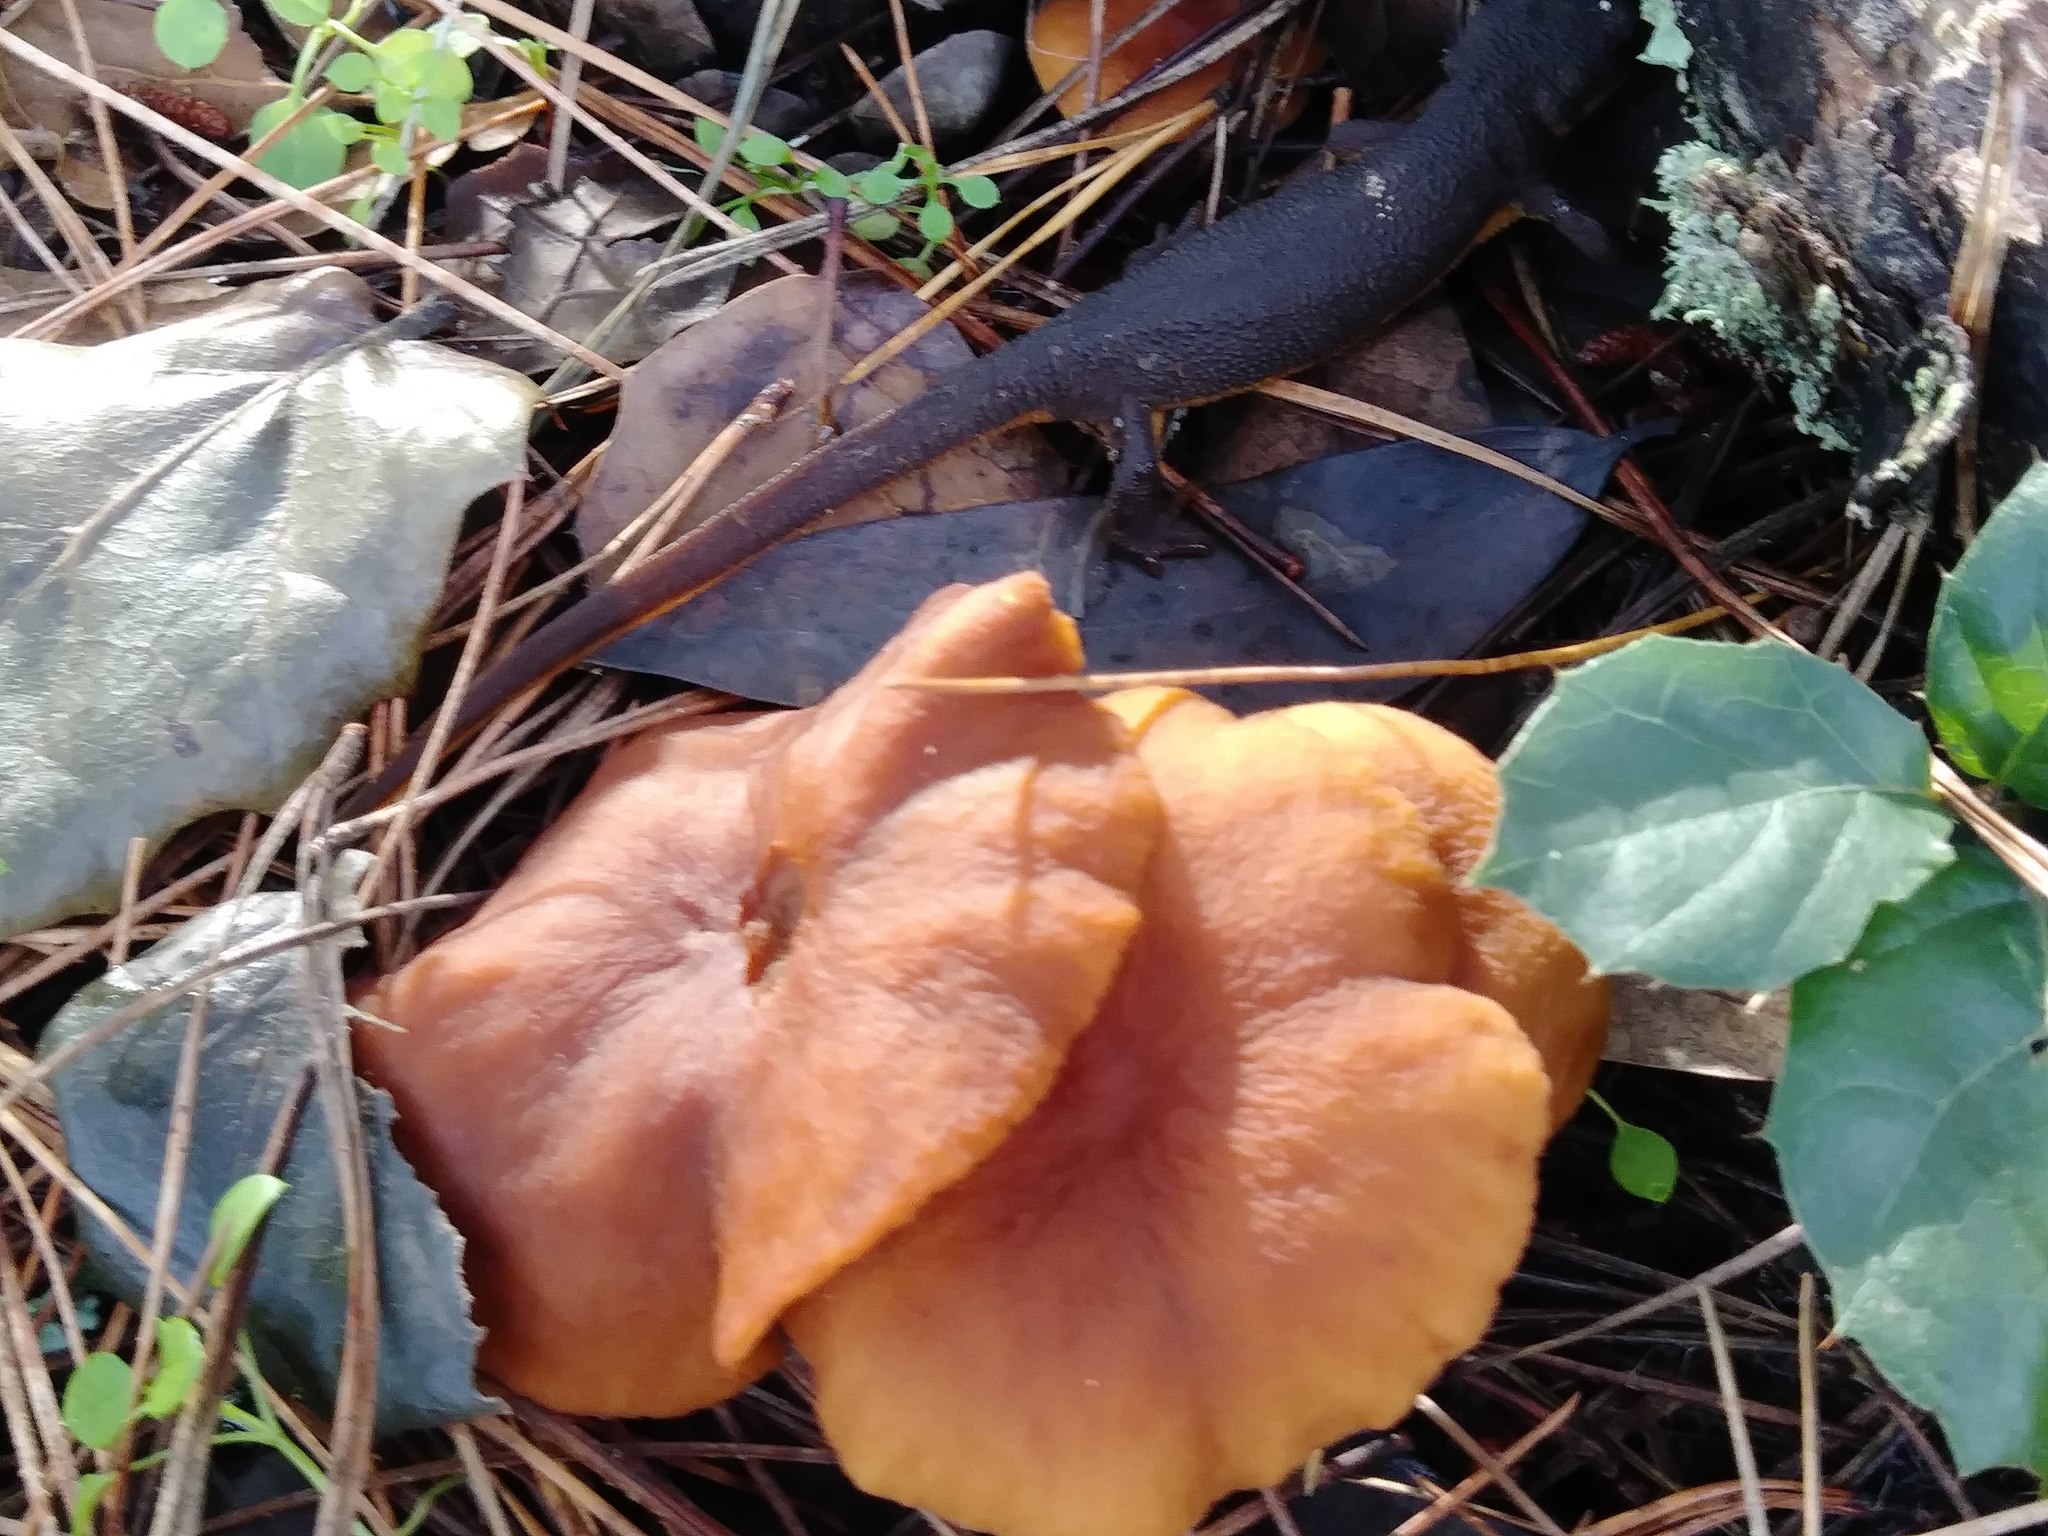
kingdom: Fungi
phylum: Basidiomycota
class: Agaricomycetes
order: Russulales
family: Russulaceae
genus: Lactarius
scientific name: Lactarius rubidus
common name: Candy cap
